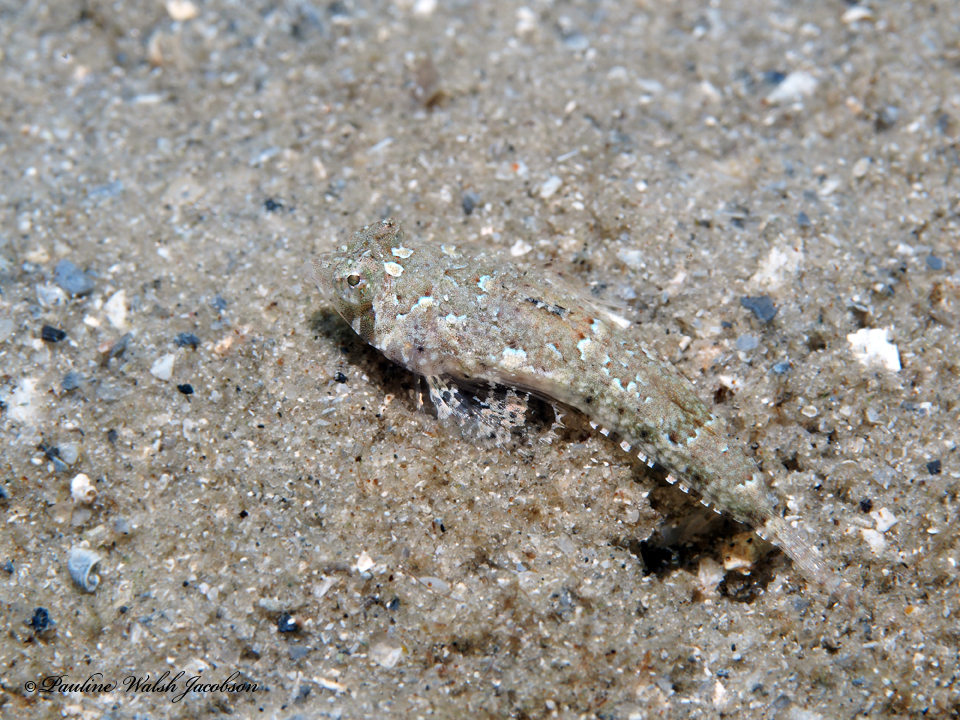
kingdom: Animalia
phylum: Chordata
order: Perciformes
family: Callionymidae
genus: Diplogrammus
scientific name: Diplogrammus pauciradiatus
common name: Spotted dragonet
